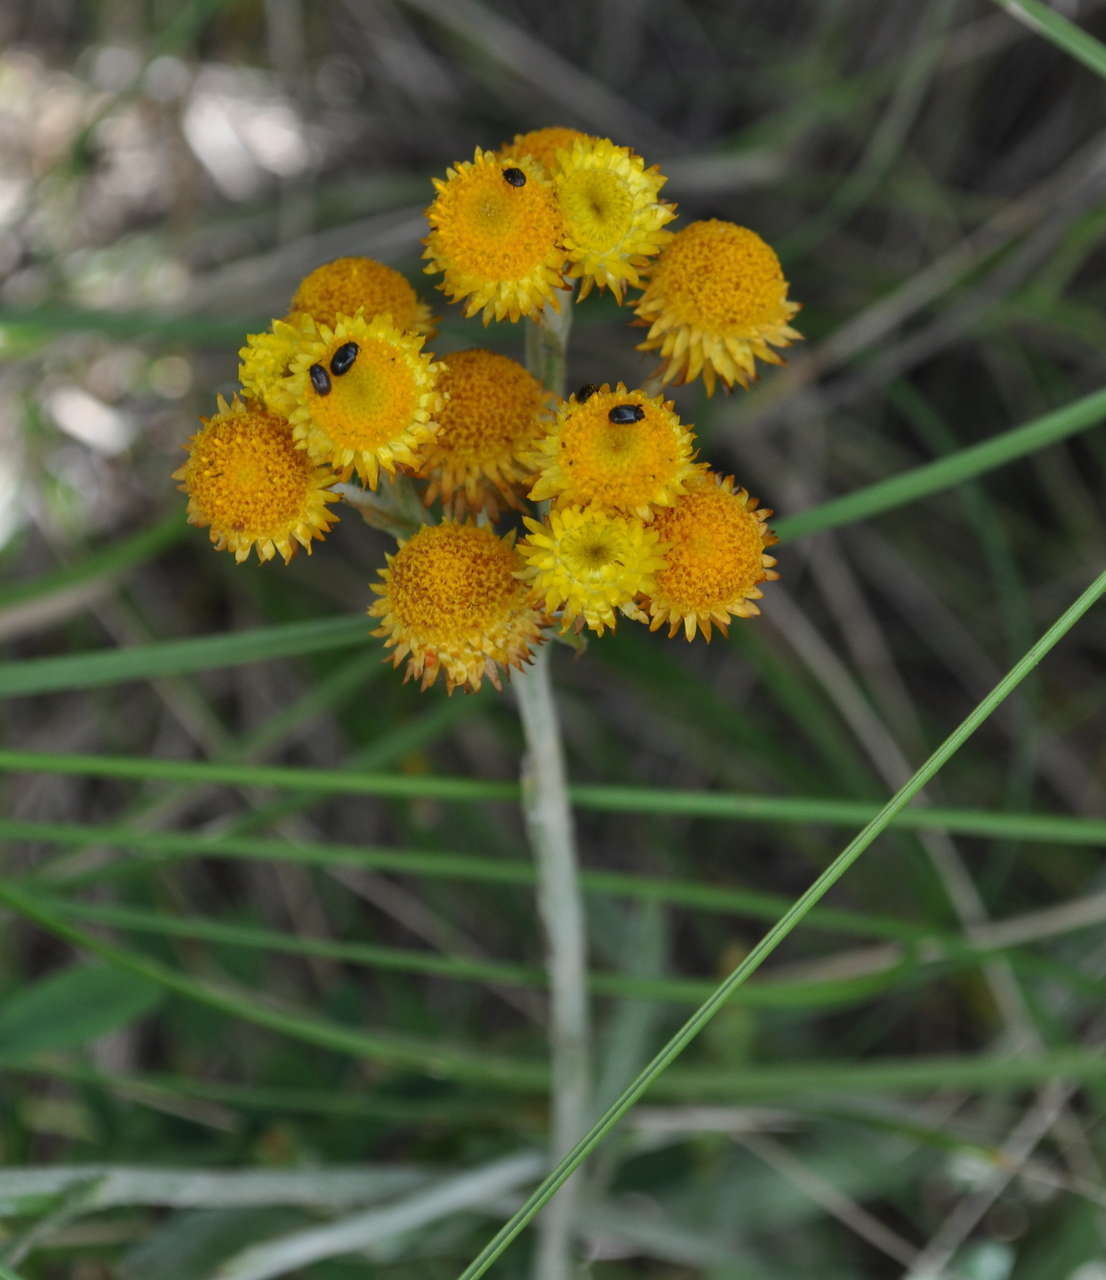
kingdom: Plantae
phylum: Tracheophyta
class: Magnoliopsida
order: Asterales
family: Asteraceae
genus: Chrysocephalum
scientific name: Chrysocephalum apiculatum
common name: Common everlasting
